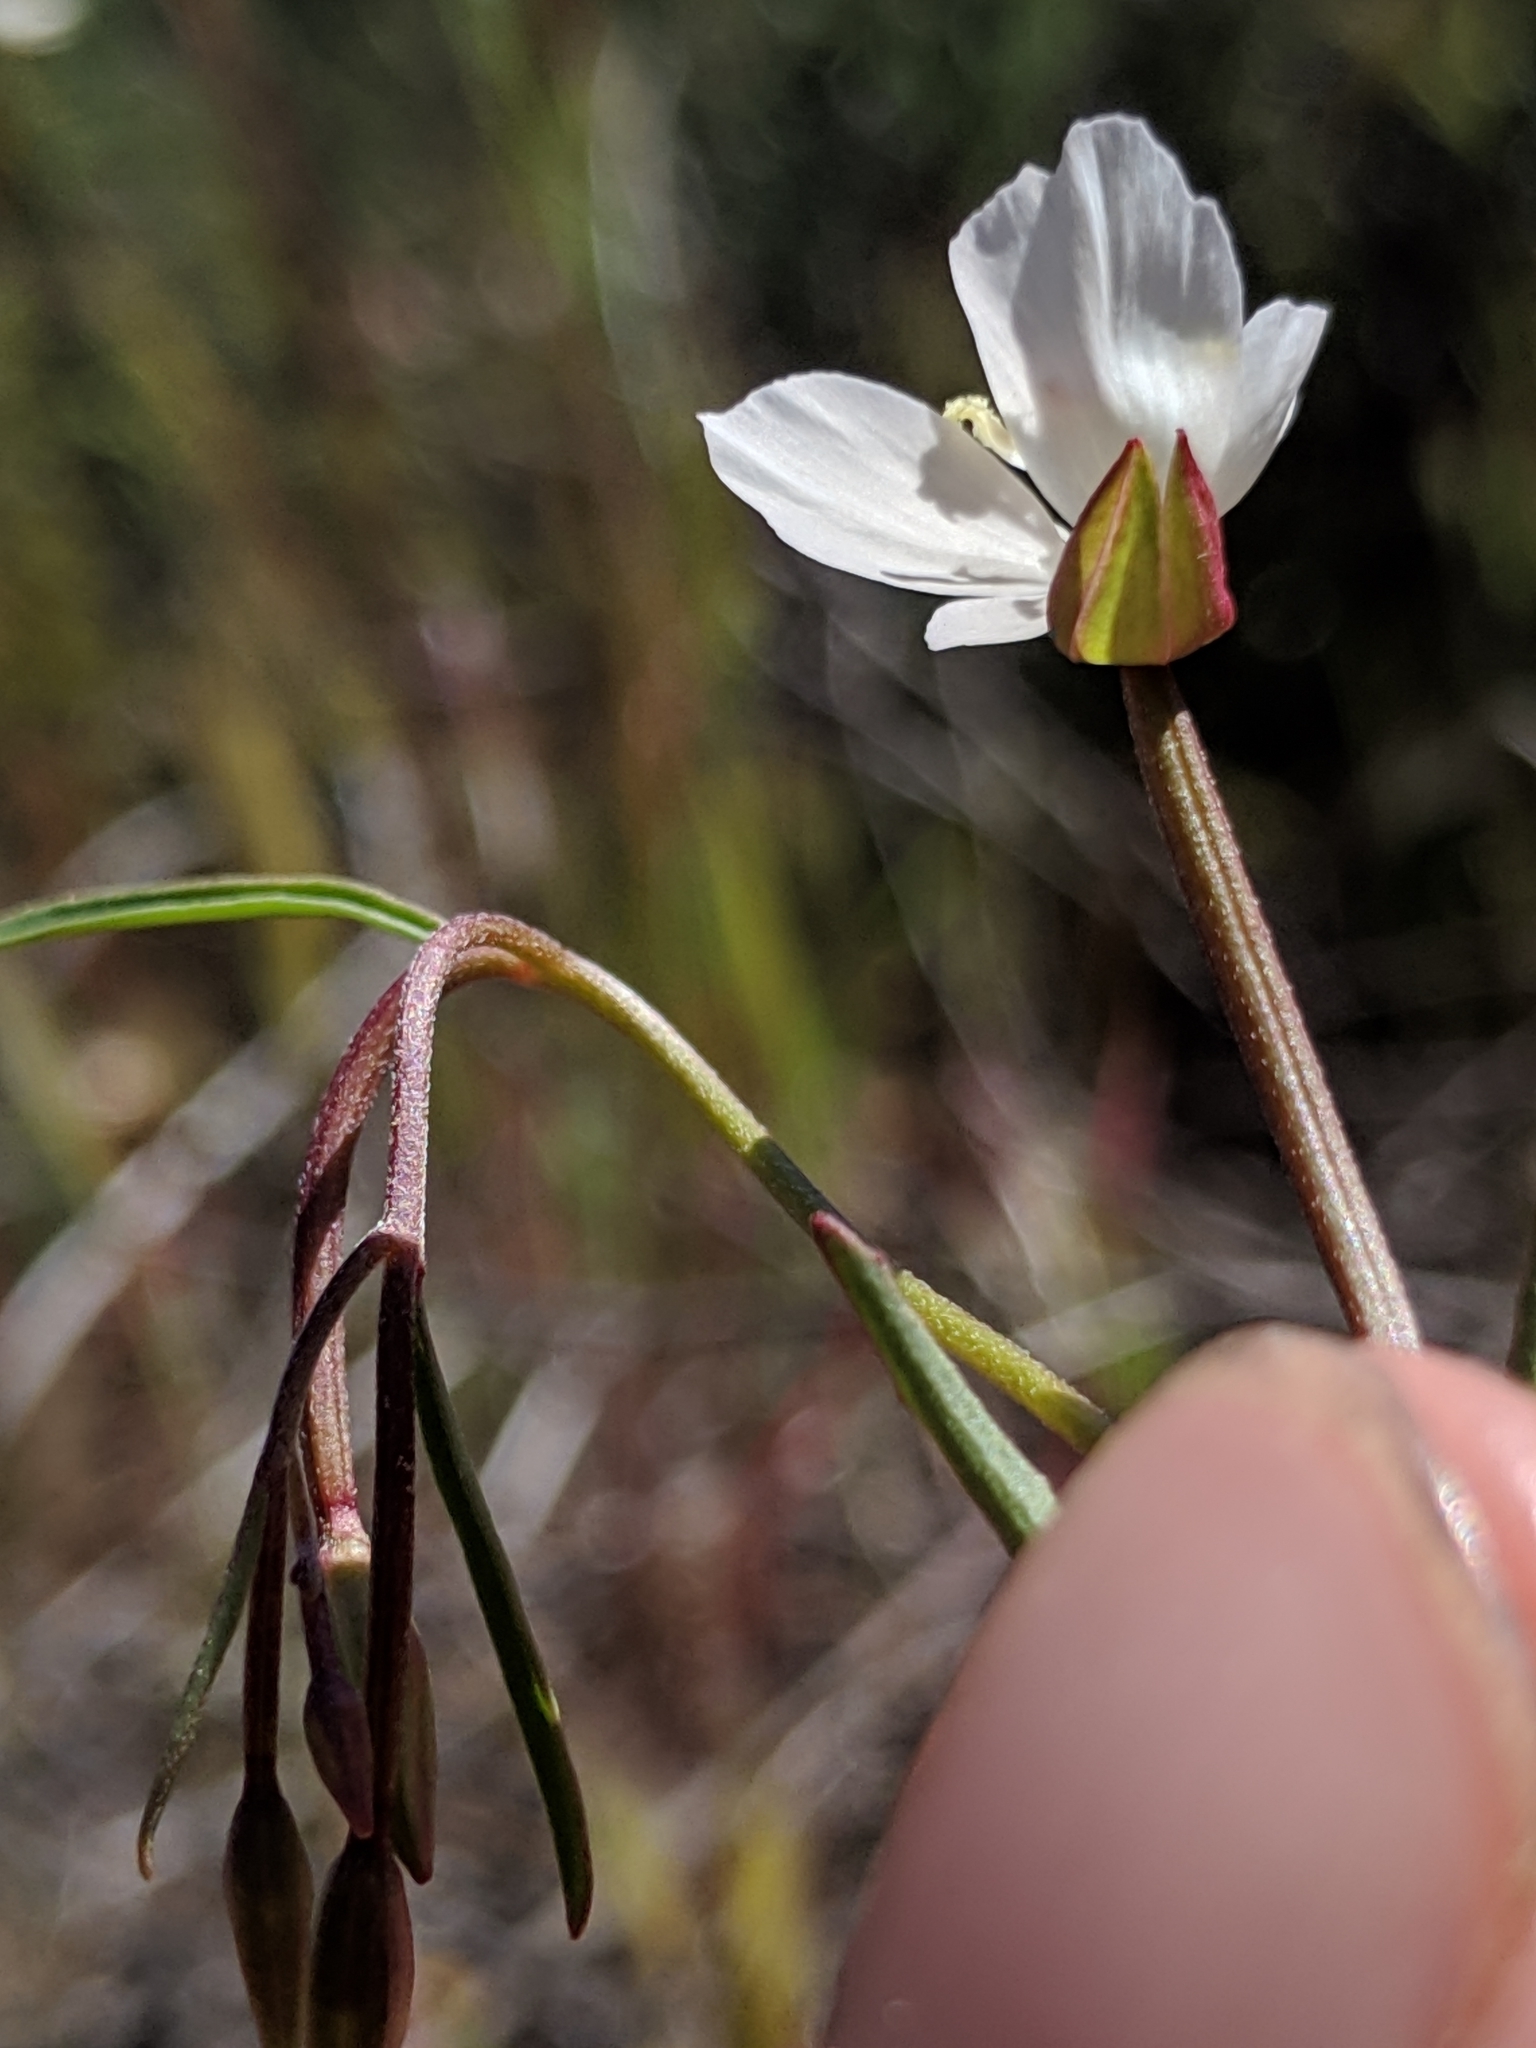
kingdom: Plantae
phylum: Tracheophyta
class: Magnoliopsida
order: Myrtales
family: Onagraceae
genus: Clarkia
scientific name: Clarkia epilobioides
